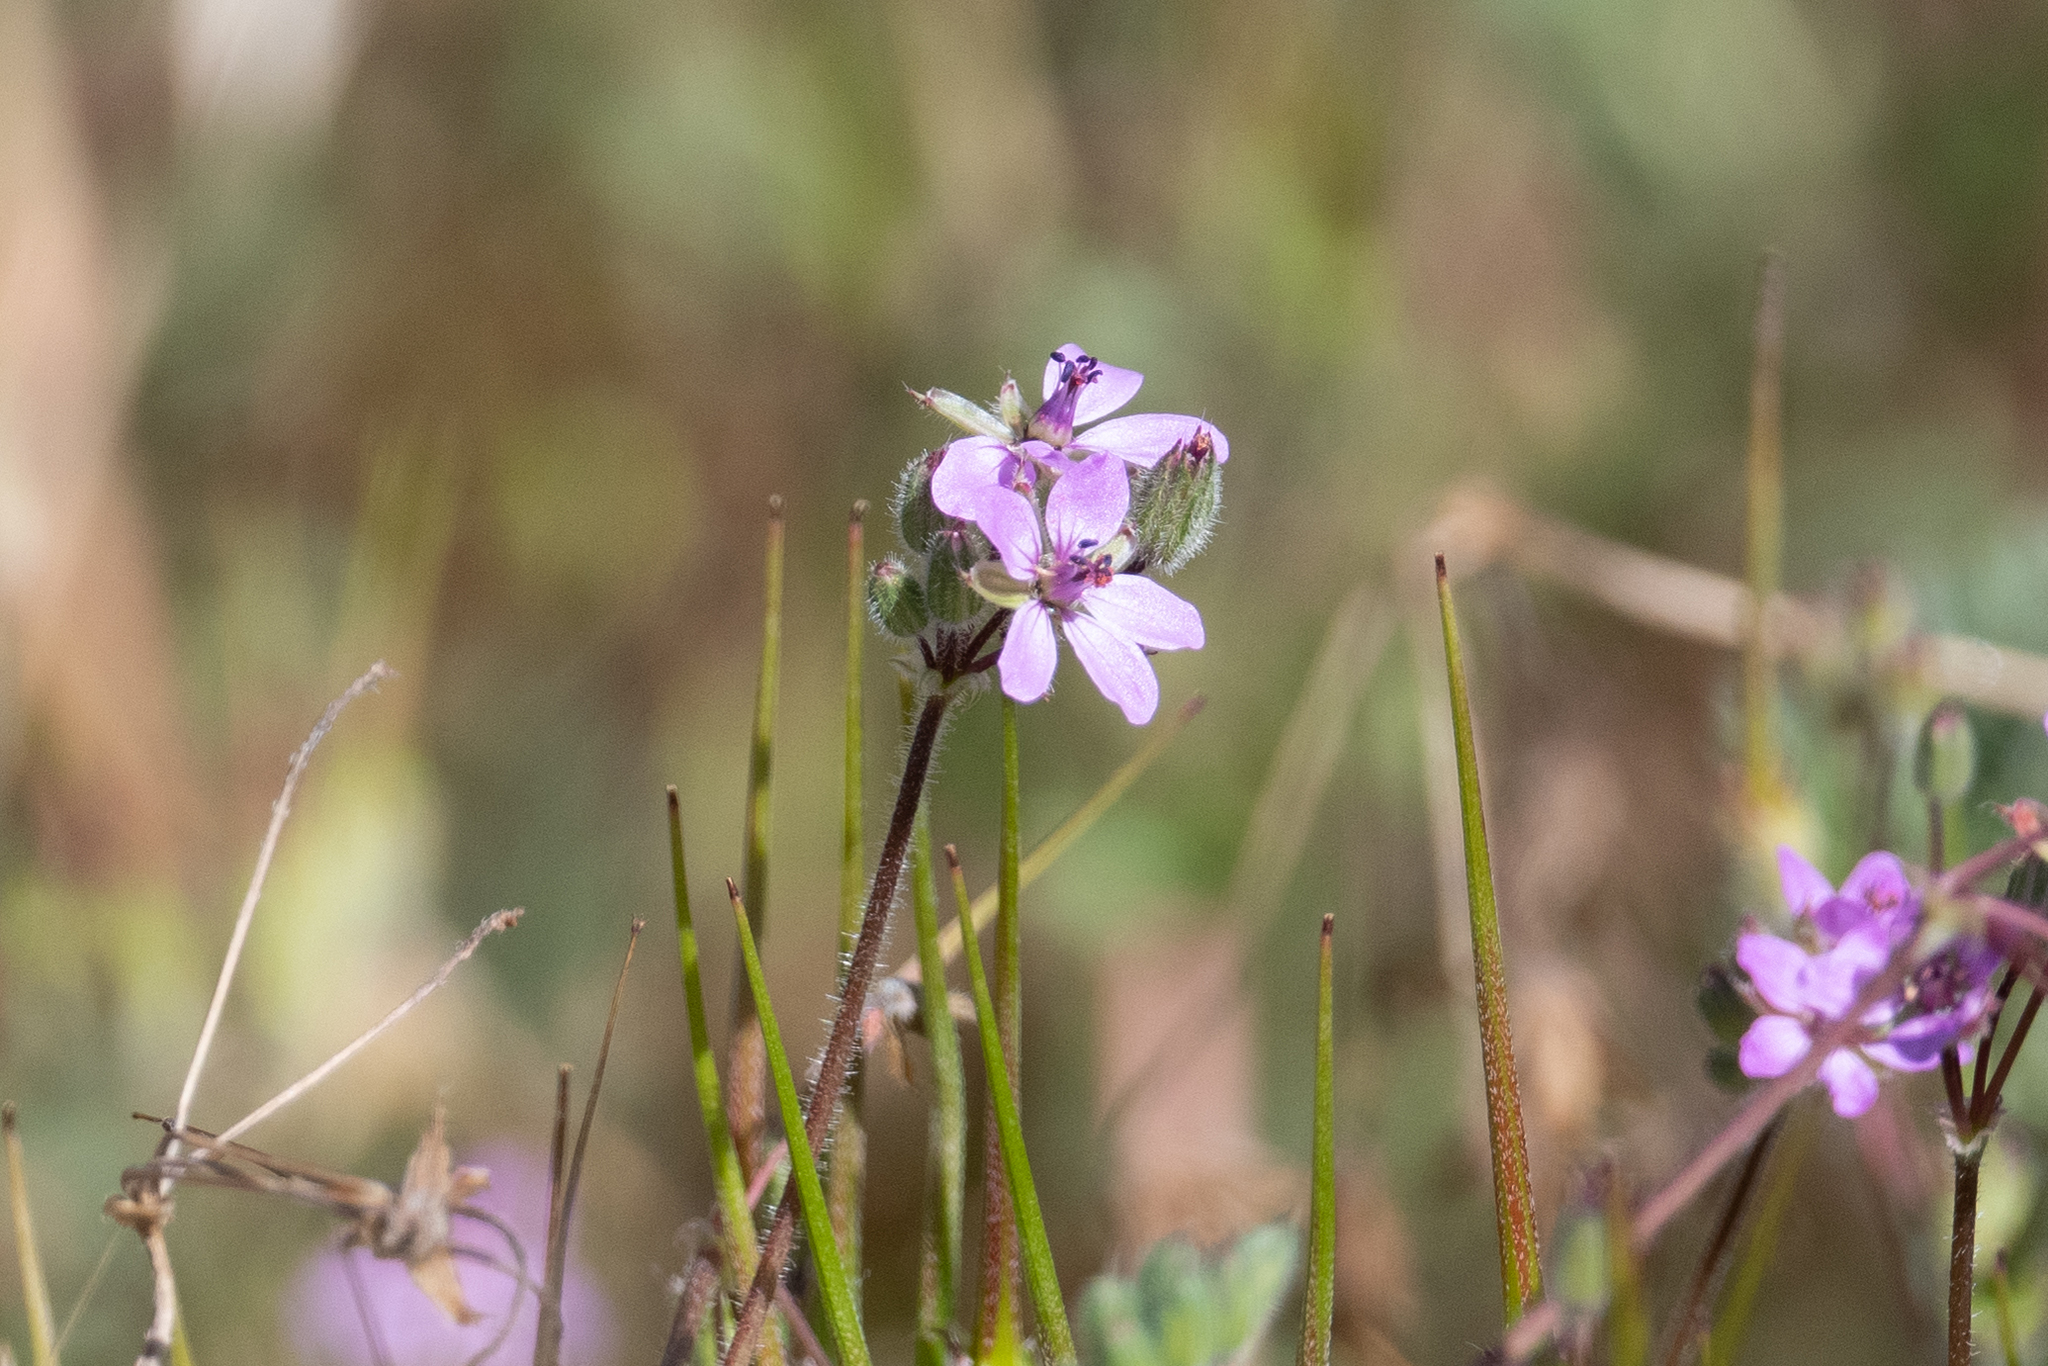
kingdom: Plantae
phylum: Tracheophyta
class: Magnoliopsida
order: Geraniales
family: Geraniaceae
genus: Erodium
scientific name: Erodium cicutarium
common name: Common stork's-bill
